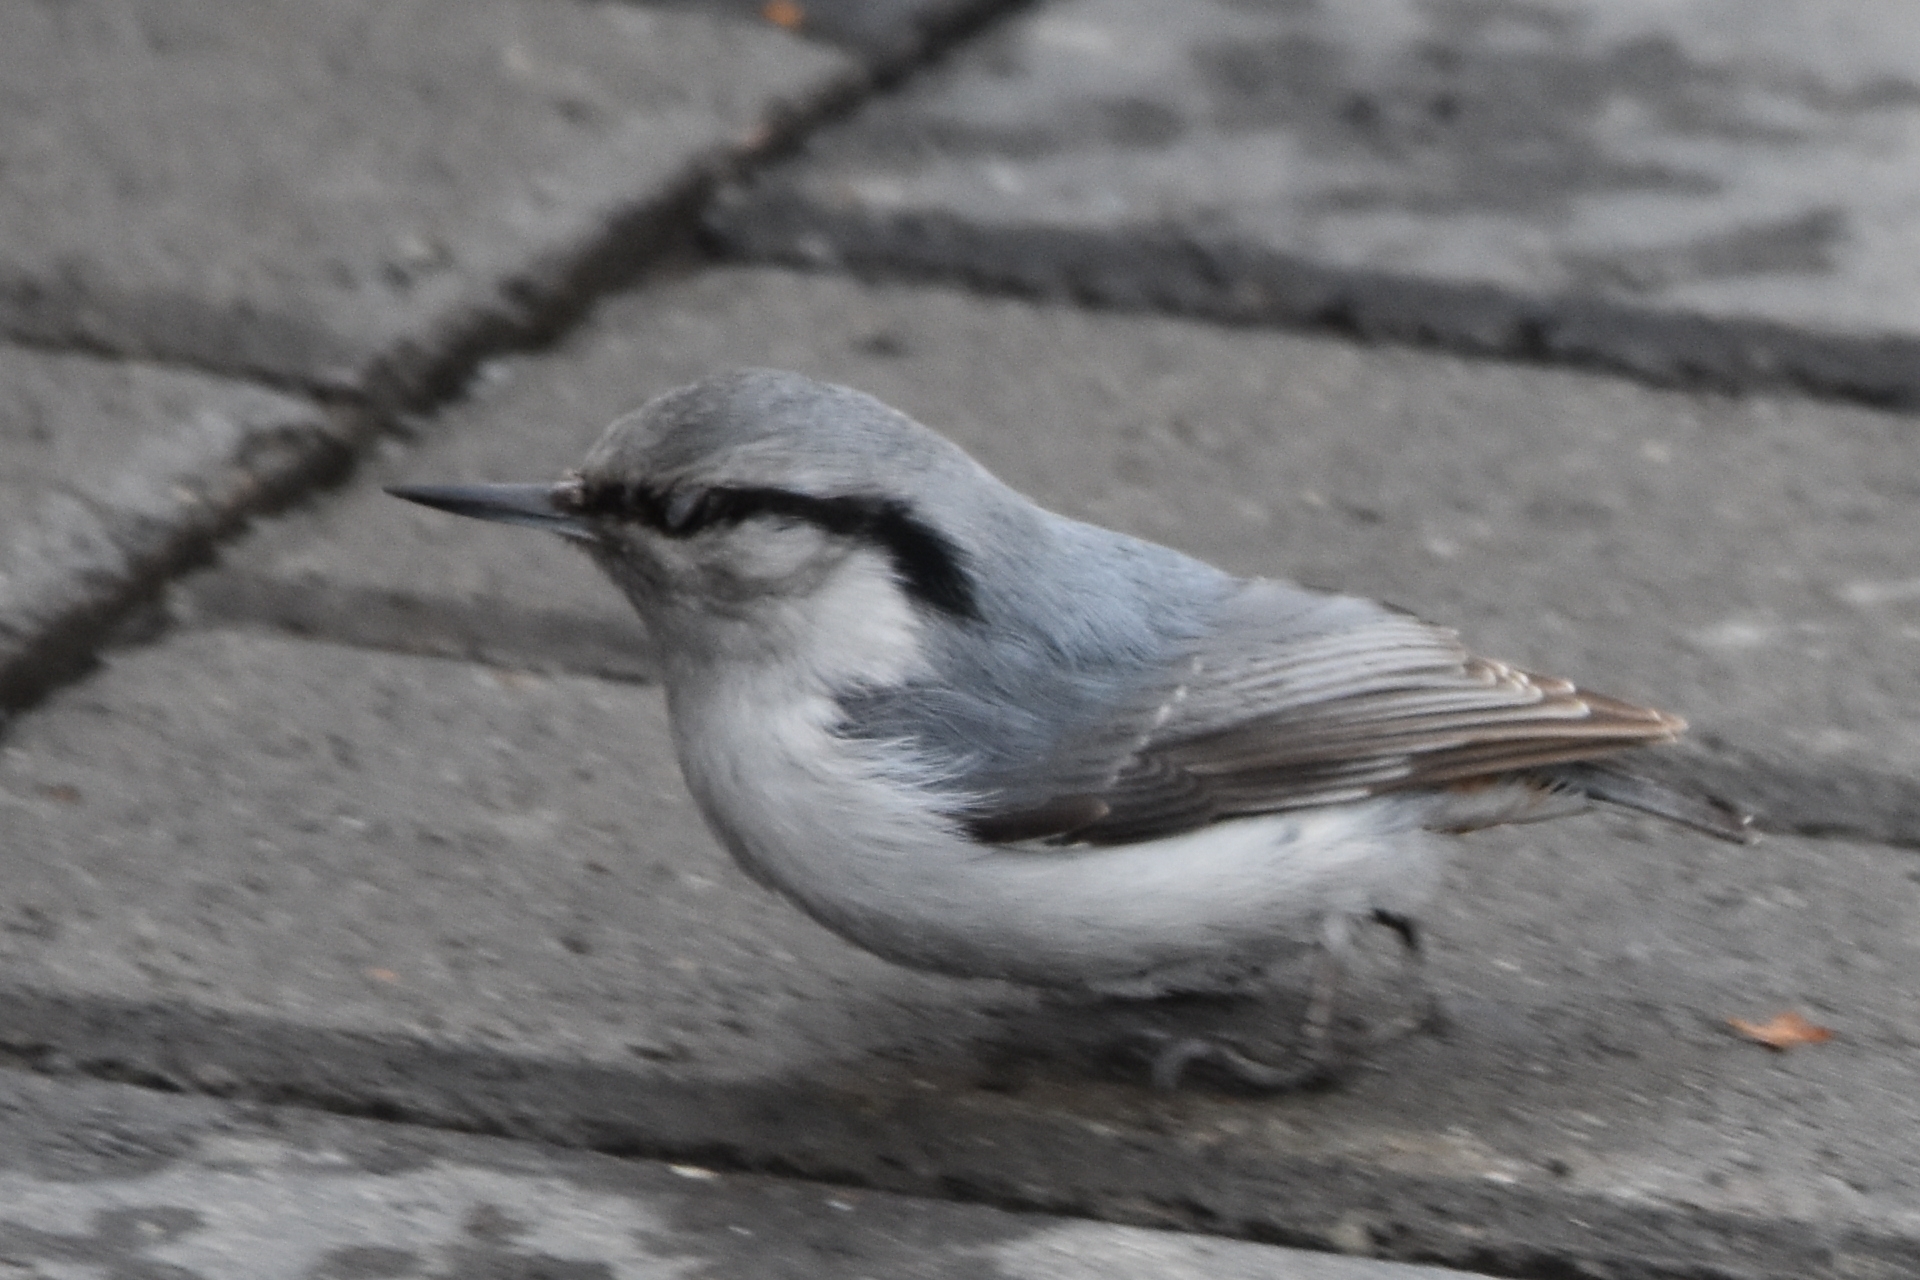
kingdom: Animalia
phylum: Chordata
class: Aves
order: Passeriformes
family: Sittidae
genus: Sitta
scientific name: Sitta europaea
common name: Eurasian nuthatch
